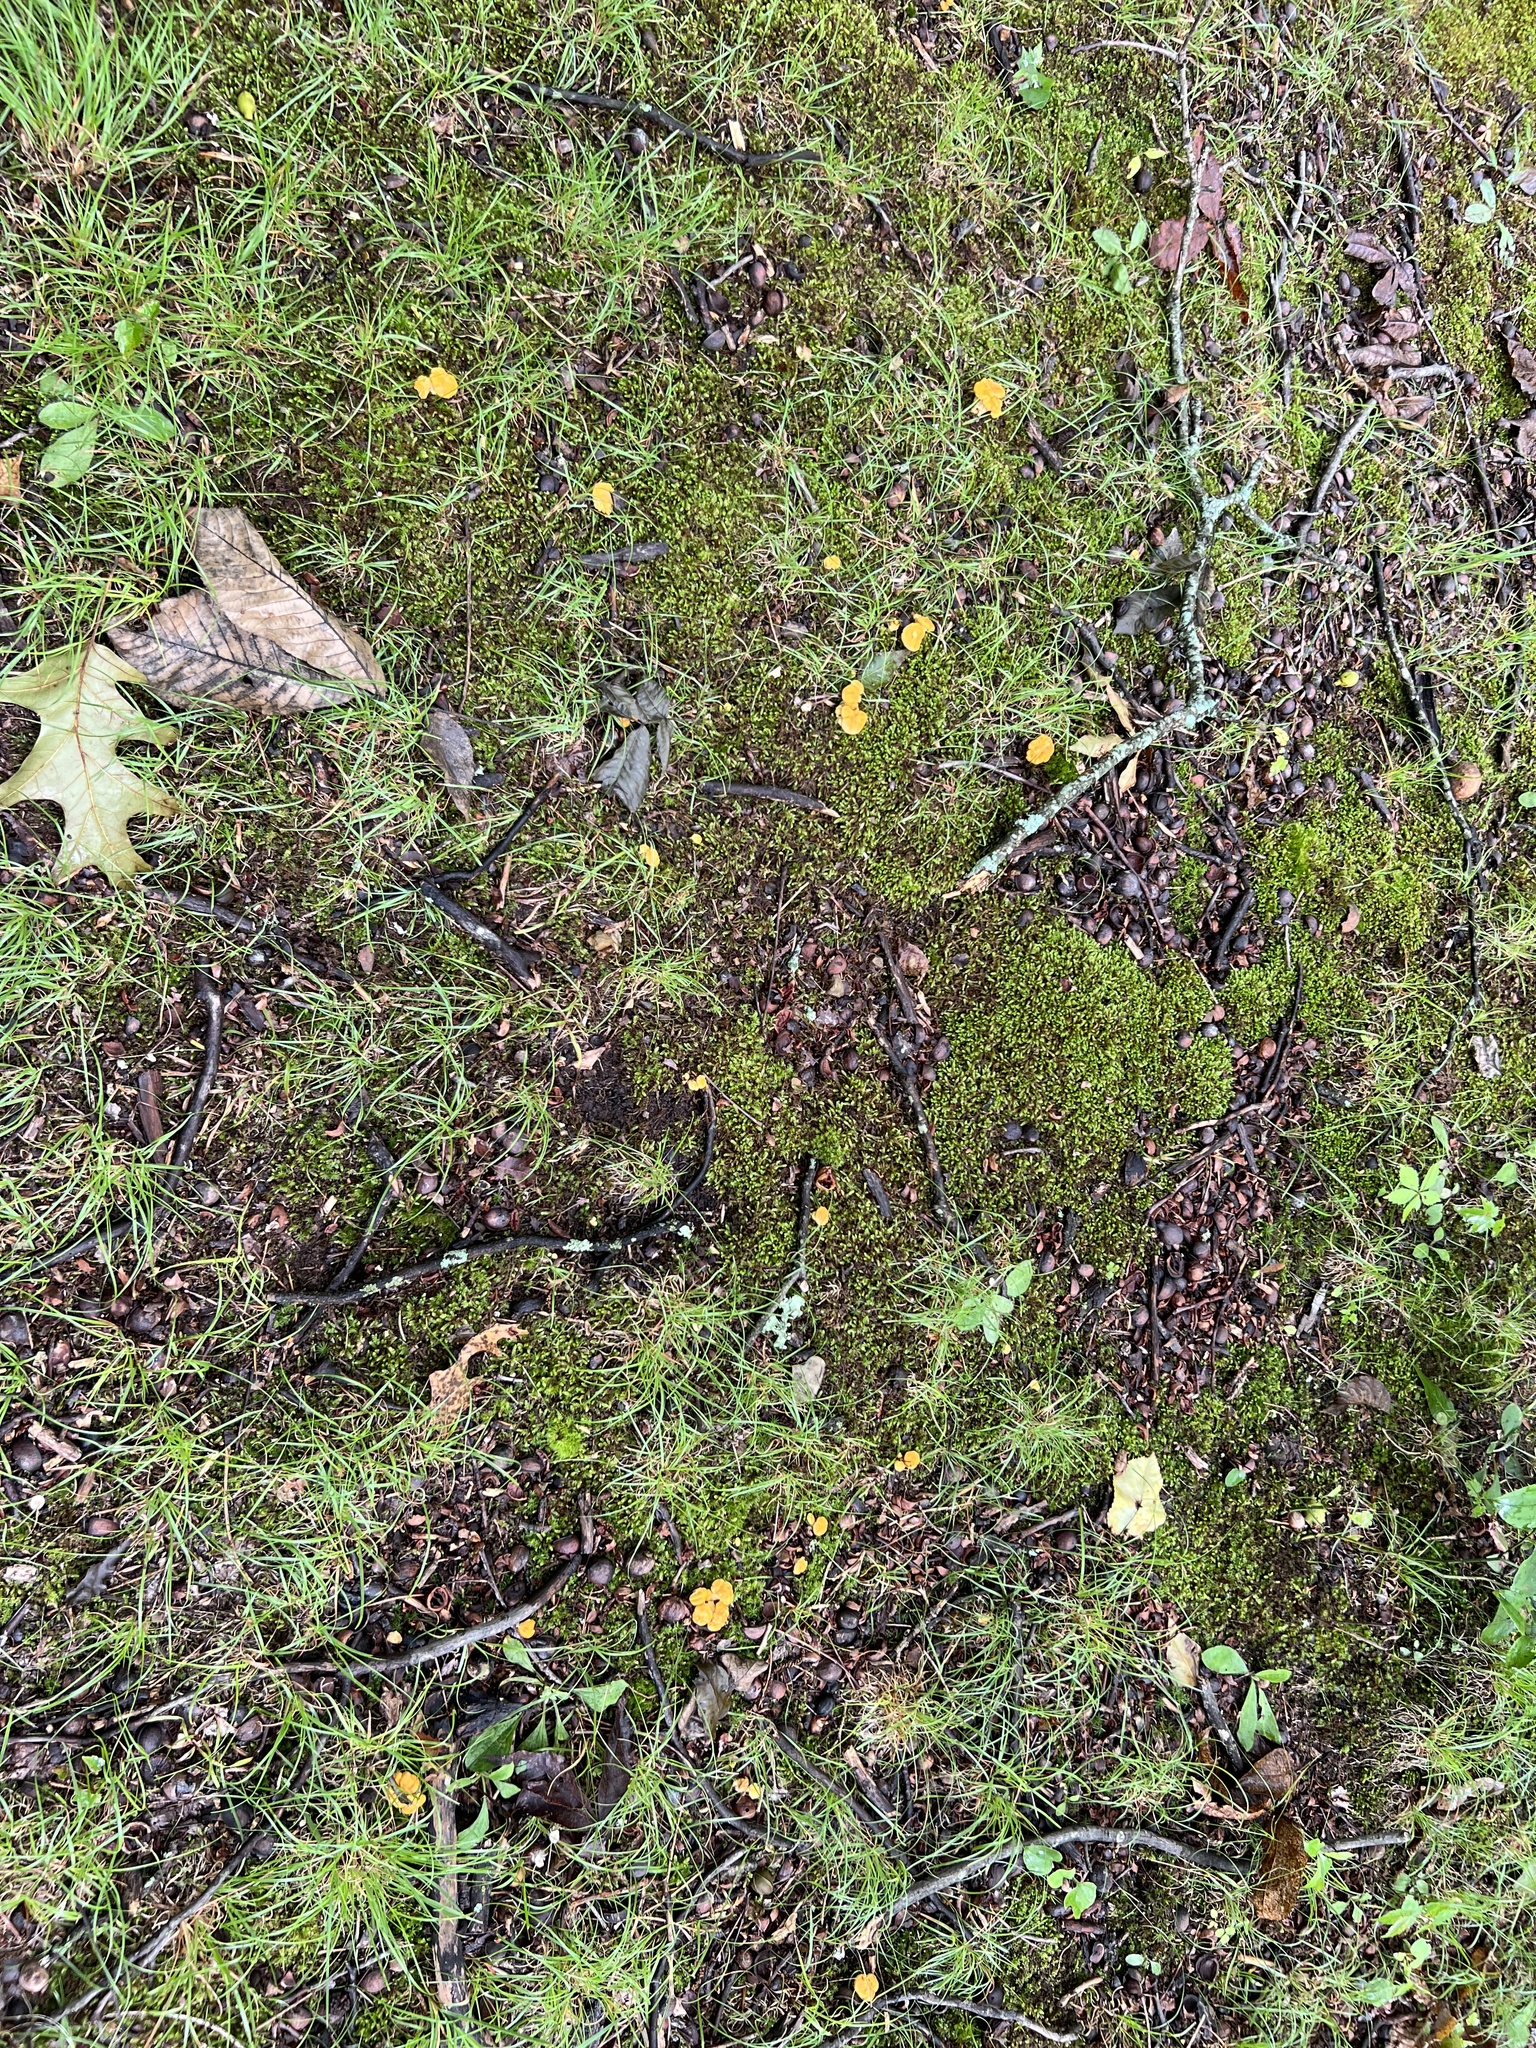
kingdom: Fungi
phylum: Basidiomycota
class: Agaricomycetes
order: Cantharellales
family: Hydnaceae
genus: Cantharellus
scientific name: Cantharellus flavolateritius
